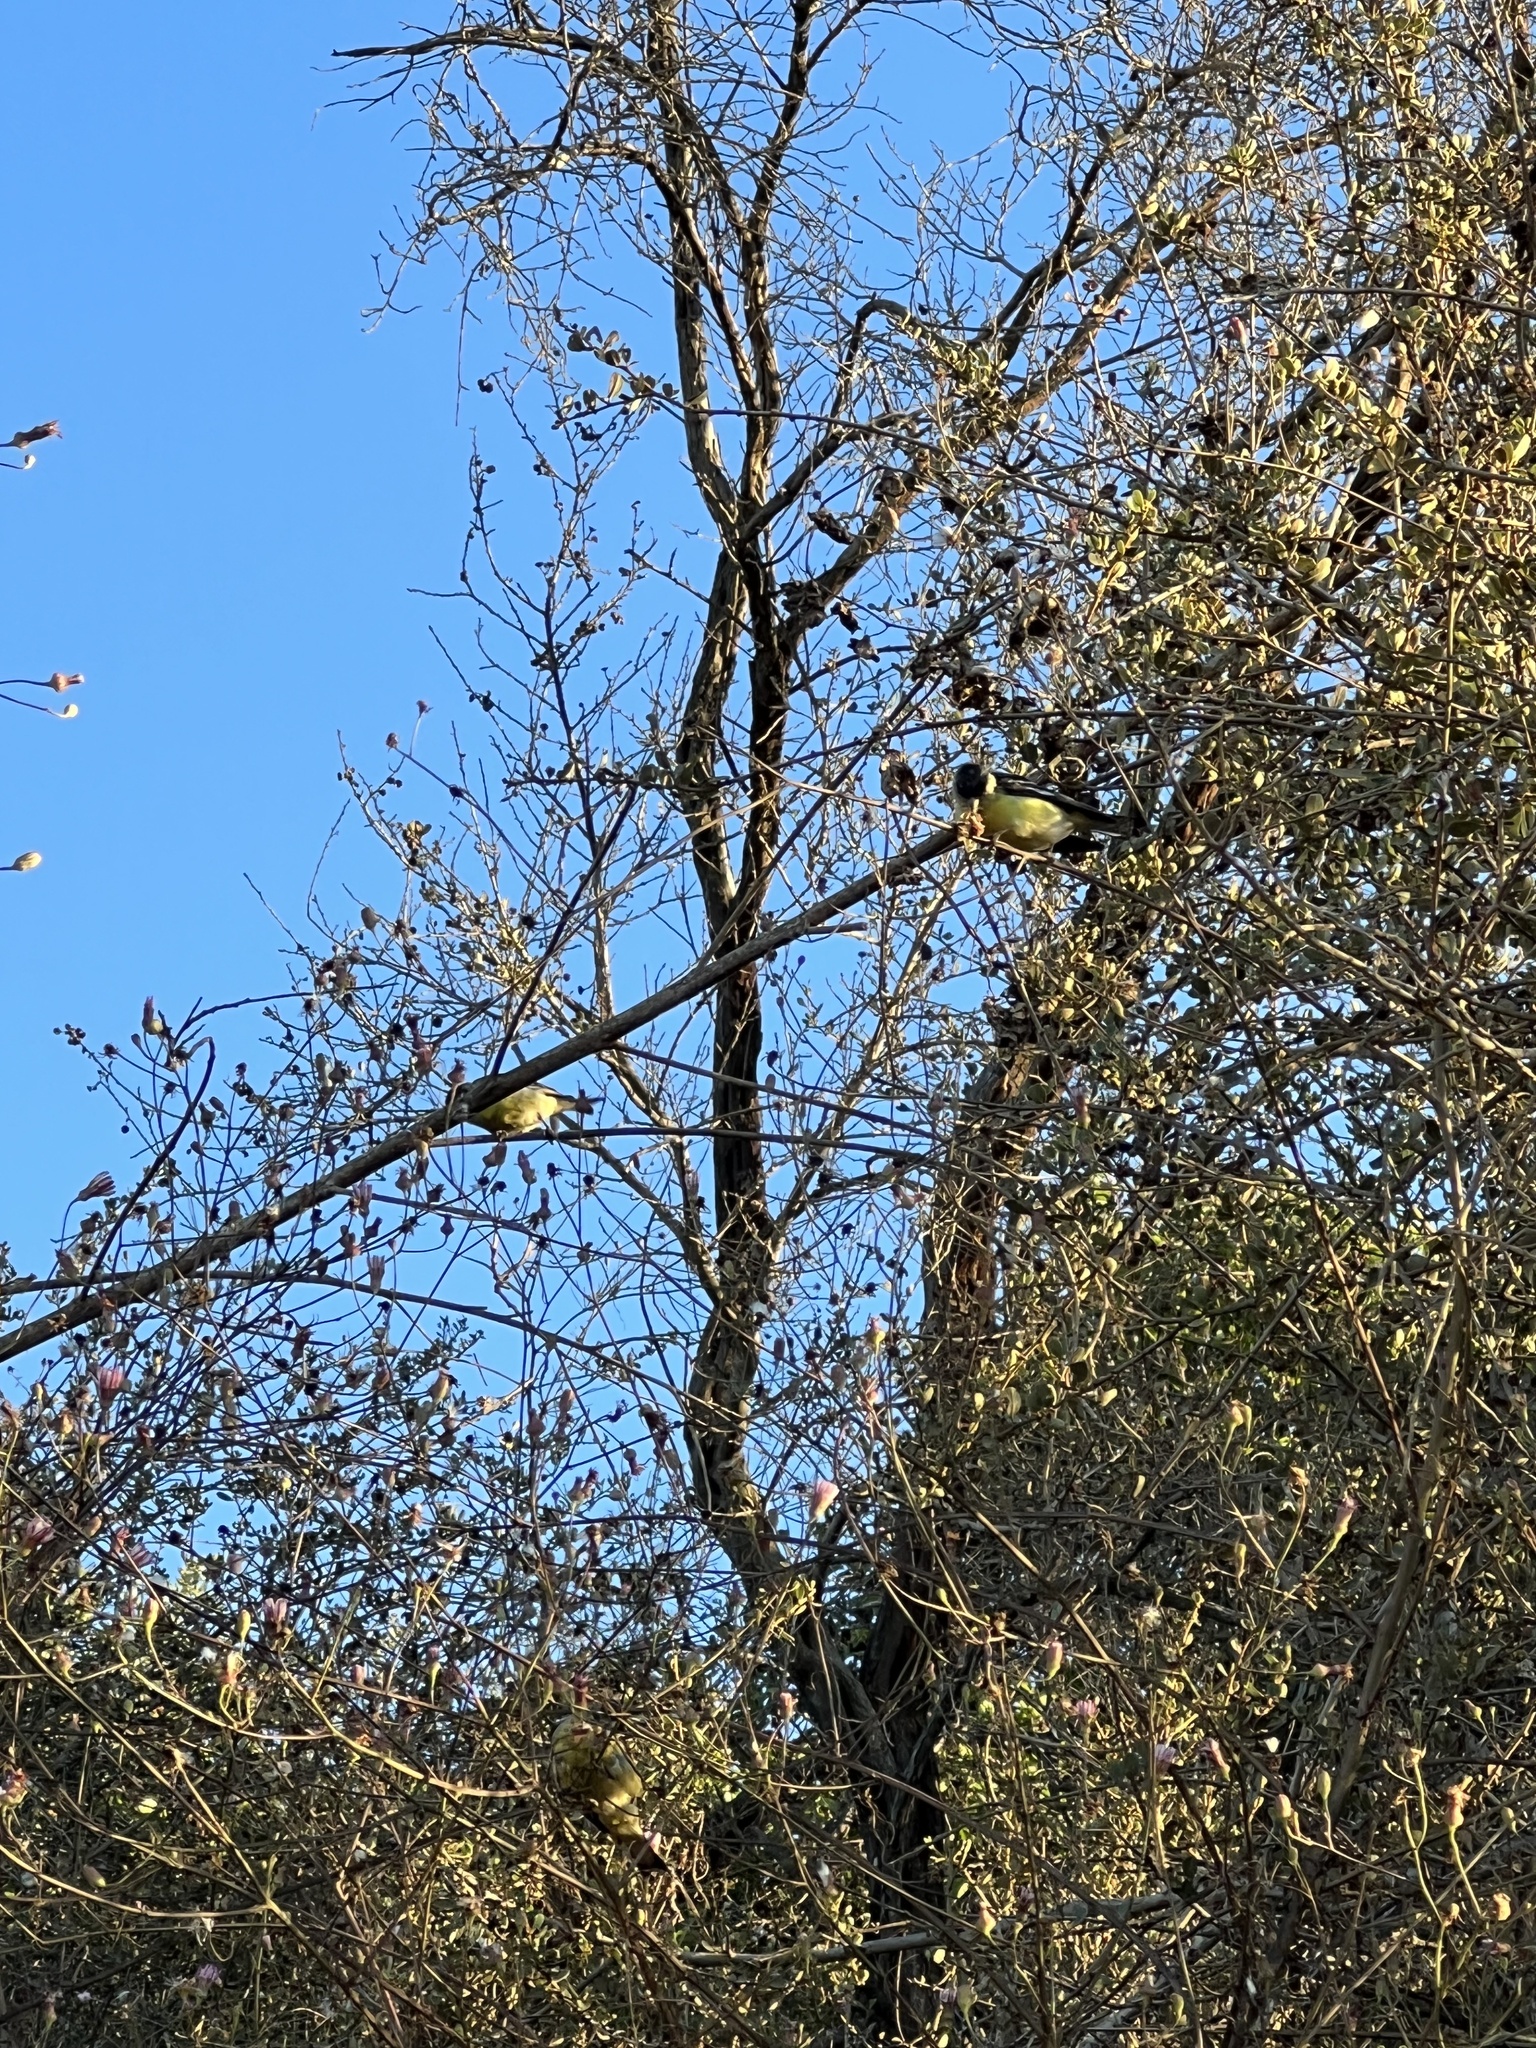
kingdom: Animalia
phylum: Chordata
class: Aves
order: Passeriformes
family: Fringillidae
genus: Spinus
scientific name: Spinus psaltria
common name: Lesser goldfinch
